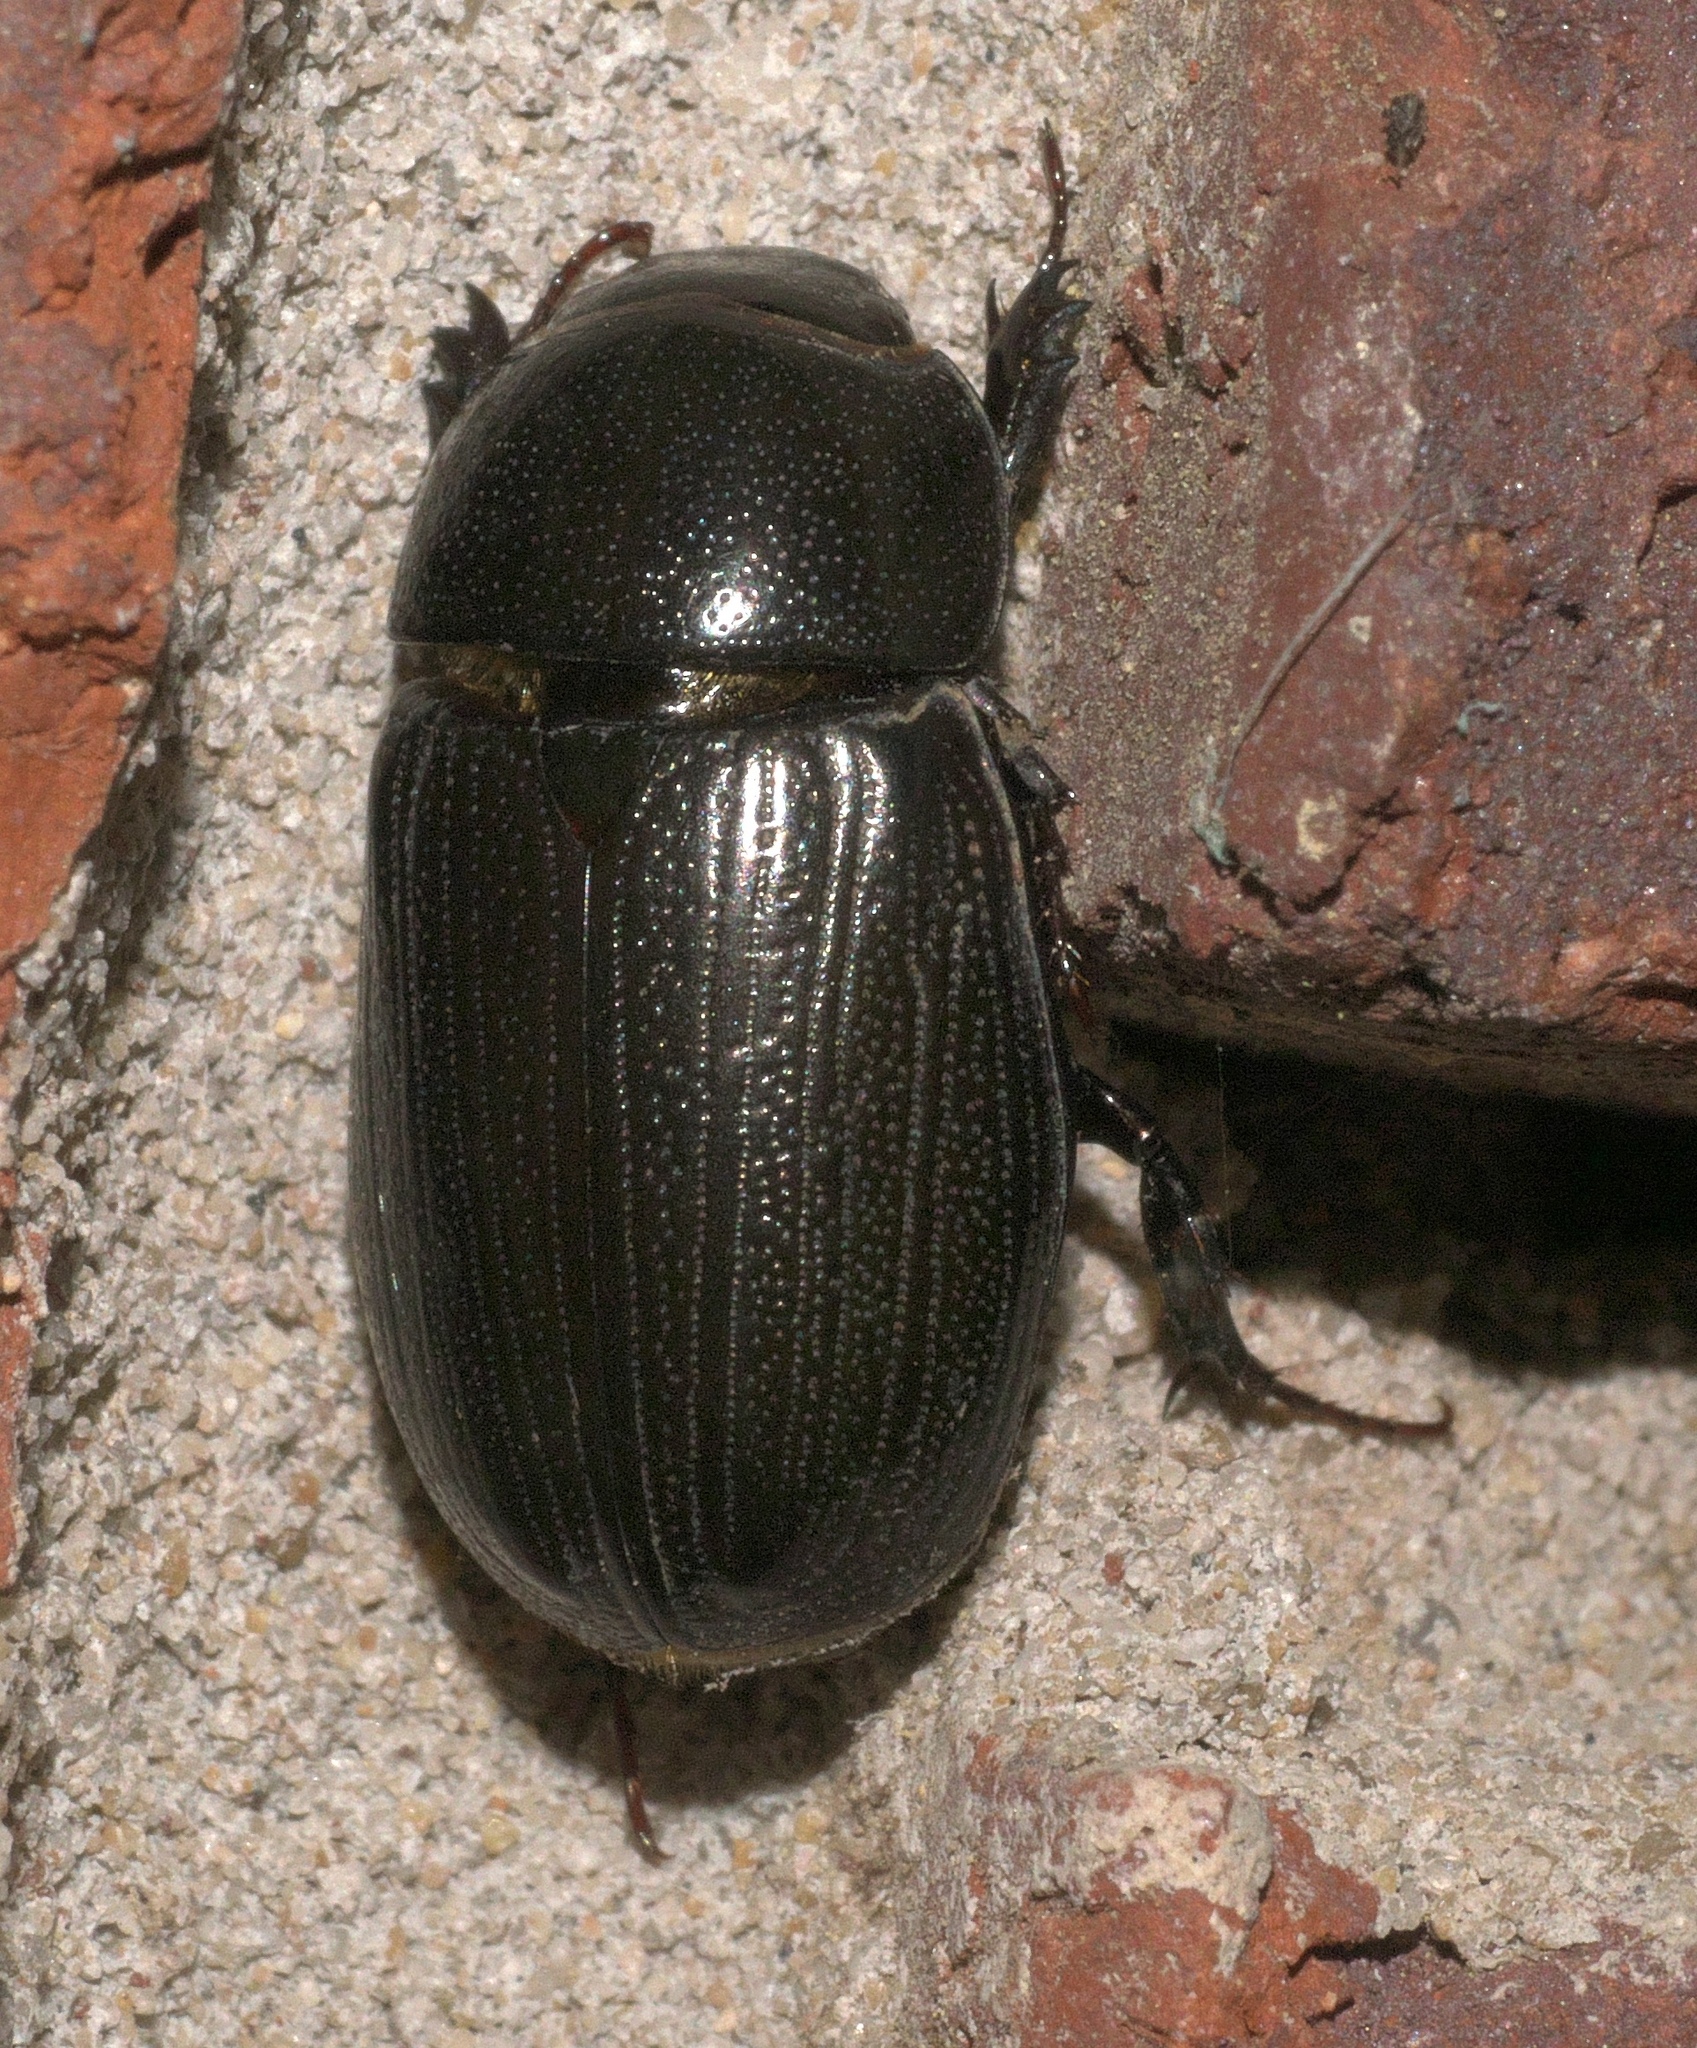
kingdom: Animalia
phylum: Arthropoda
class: Insecta
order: Coleoptera
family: Scarabaeidae
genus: Dyscinetus
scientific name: Dyscinetus morator
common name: Rice beetle
